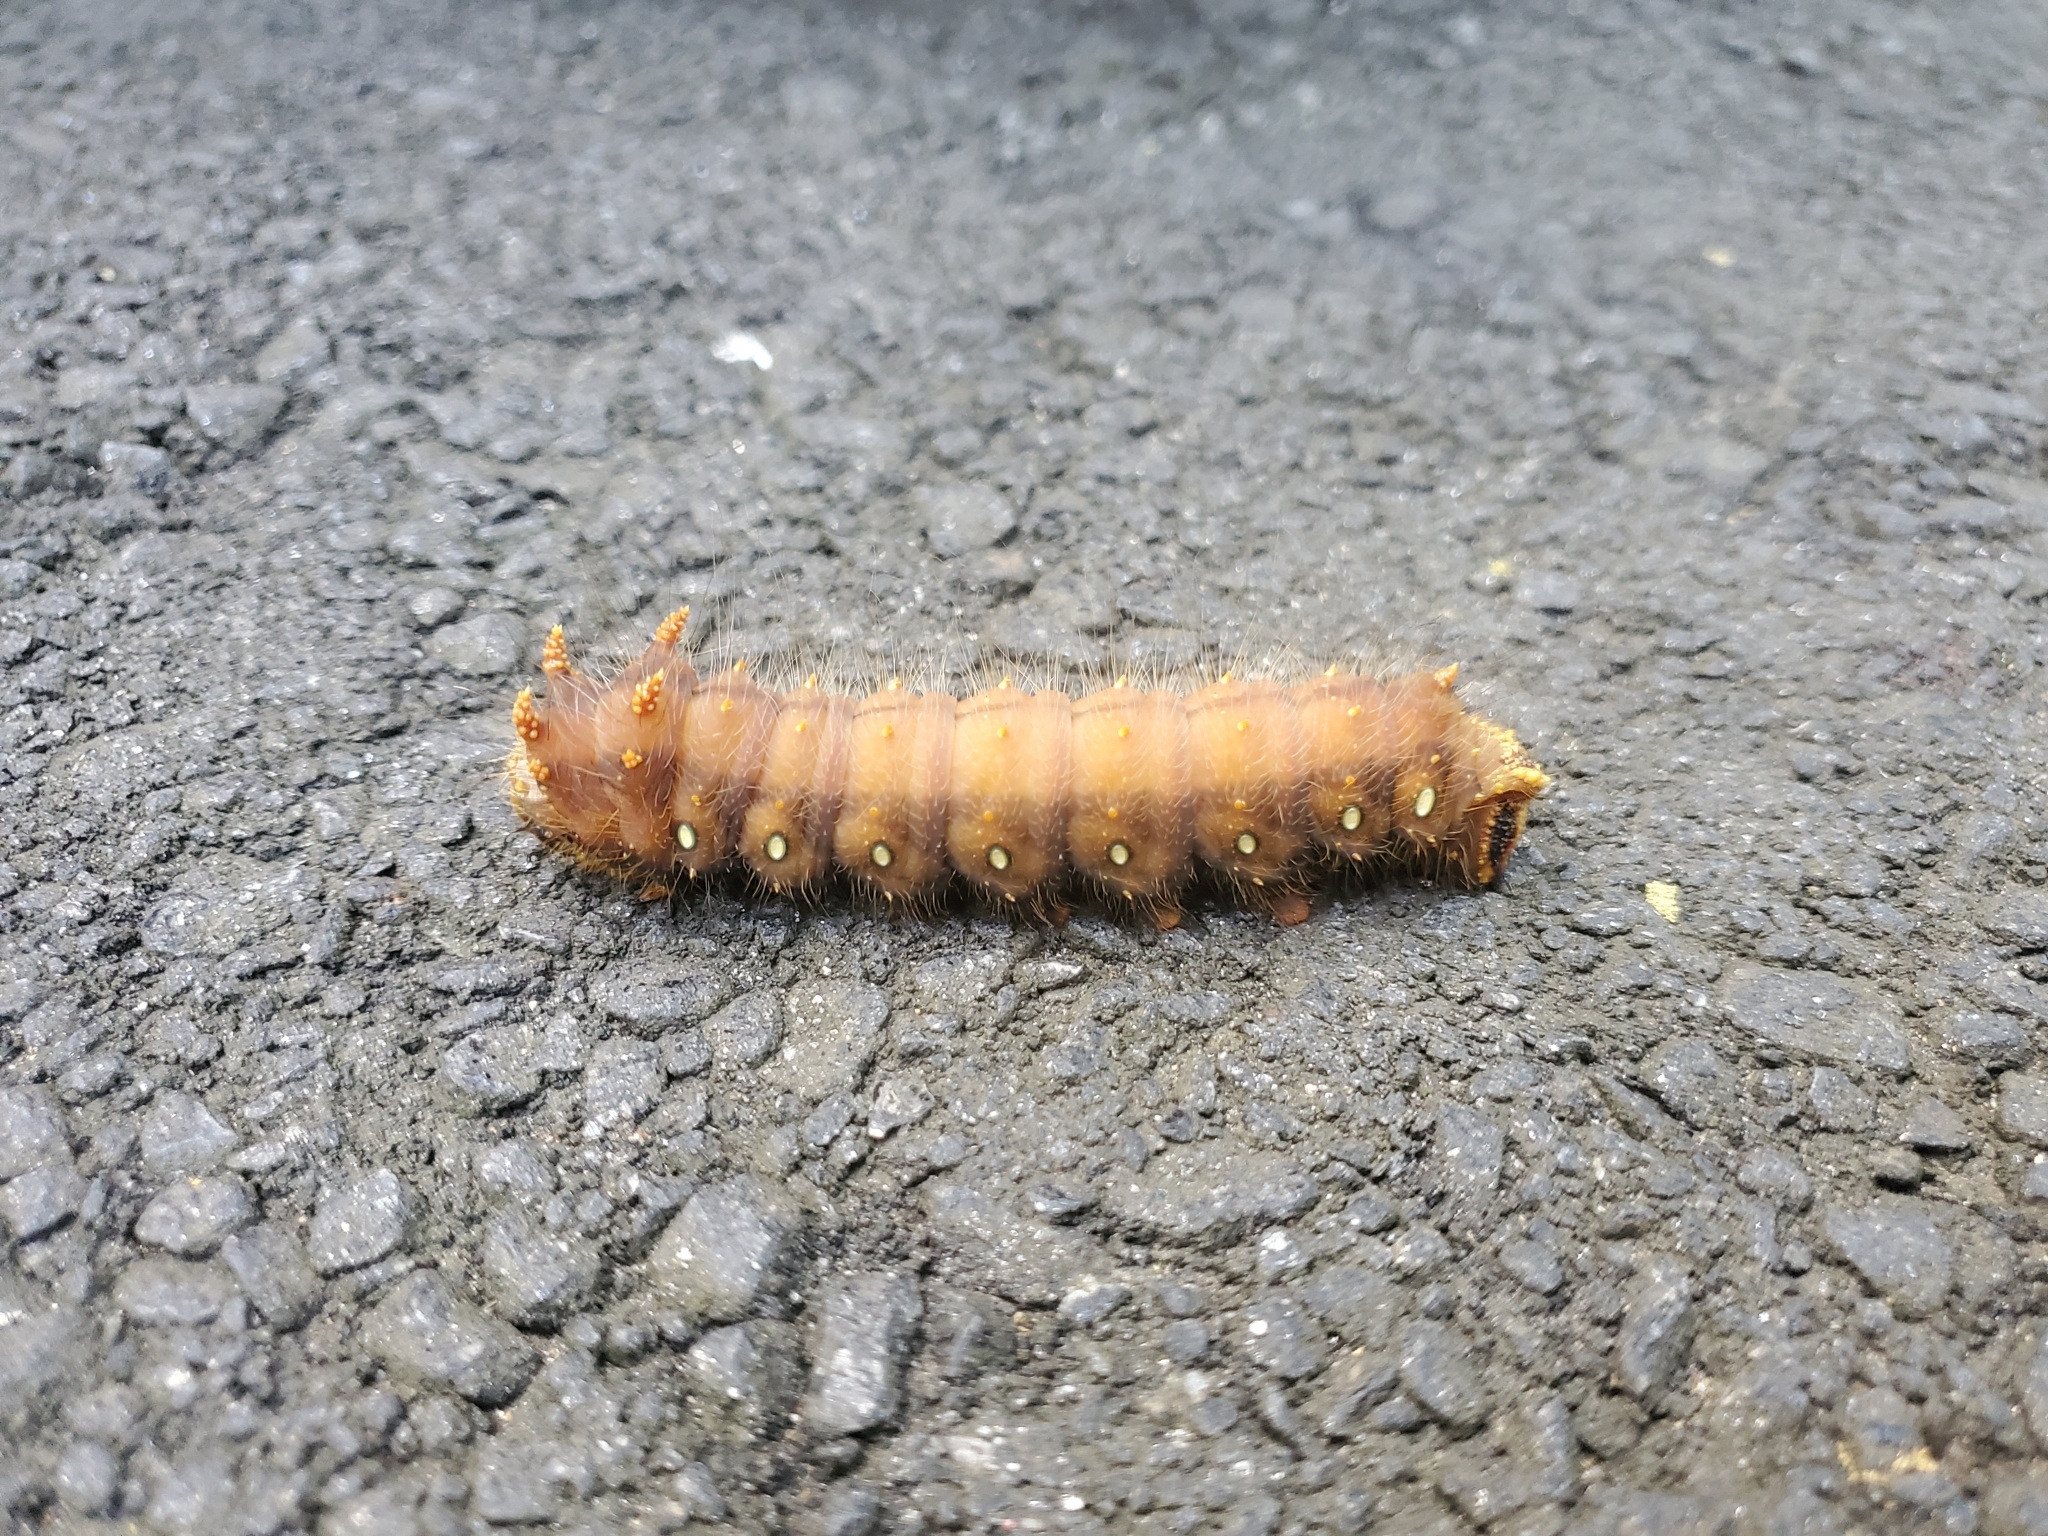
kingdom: Animalia
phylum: Arthropoda
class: Insecta
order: Lepidoptera
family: Saturniidae
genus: Eacles
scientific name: Eacles imperialis
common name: Imperial moth
